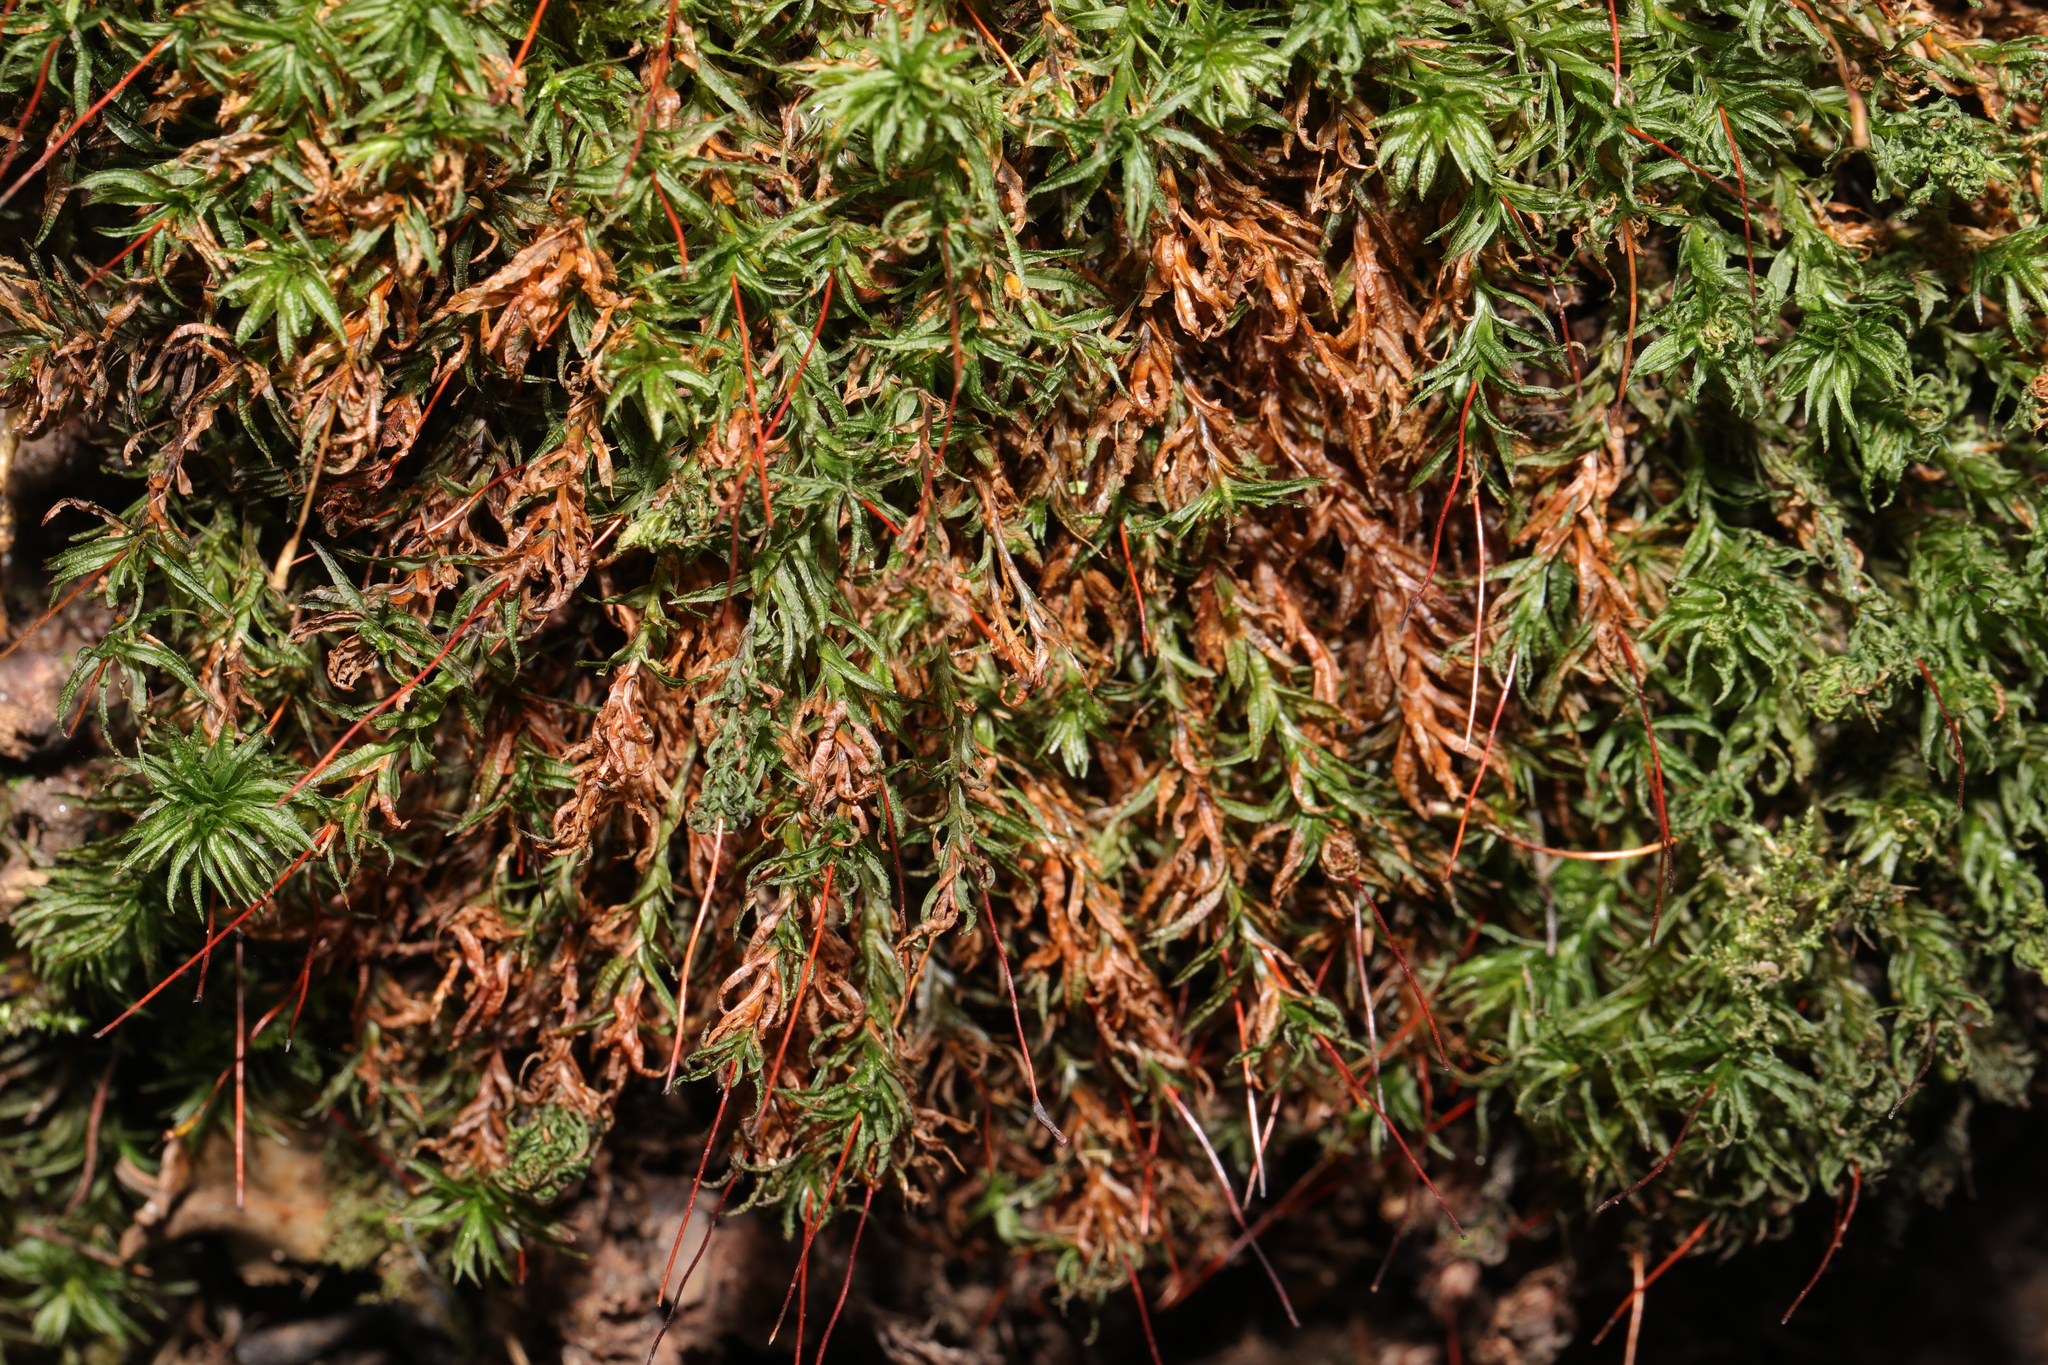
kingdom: Plantae
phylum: Bryophyta
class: Polytrichopsida
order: Polytrichales
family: Polytrichaceae
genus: Atrichum
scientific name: Atrichum undulatum
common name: Common smoothcap
